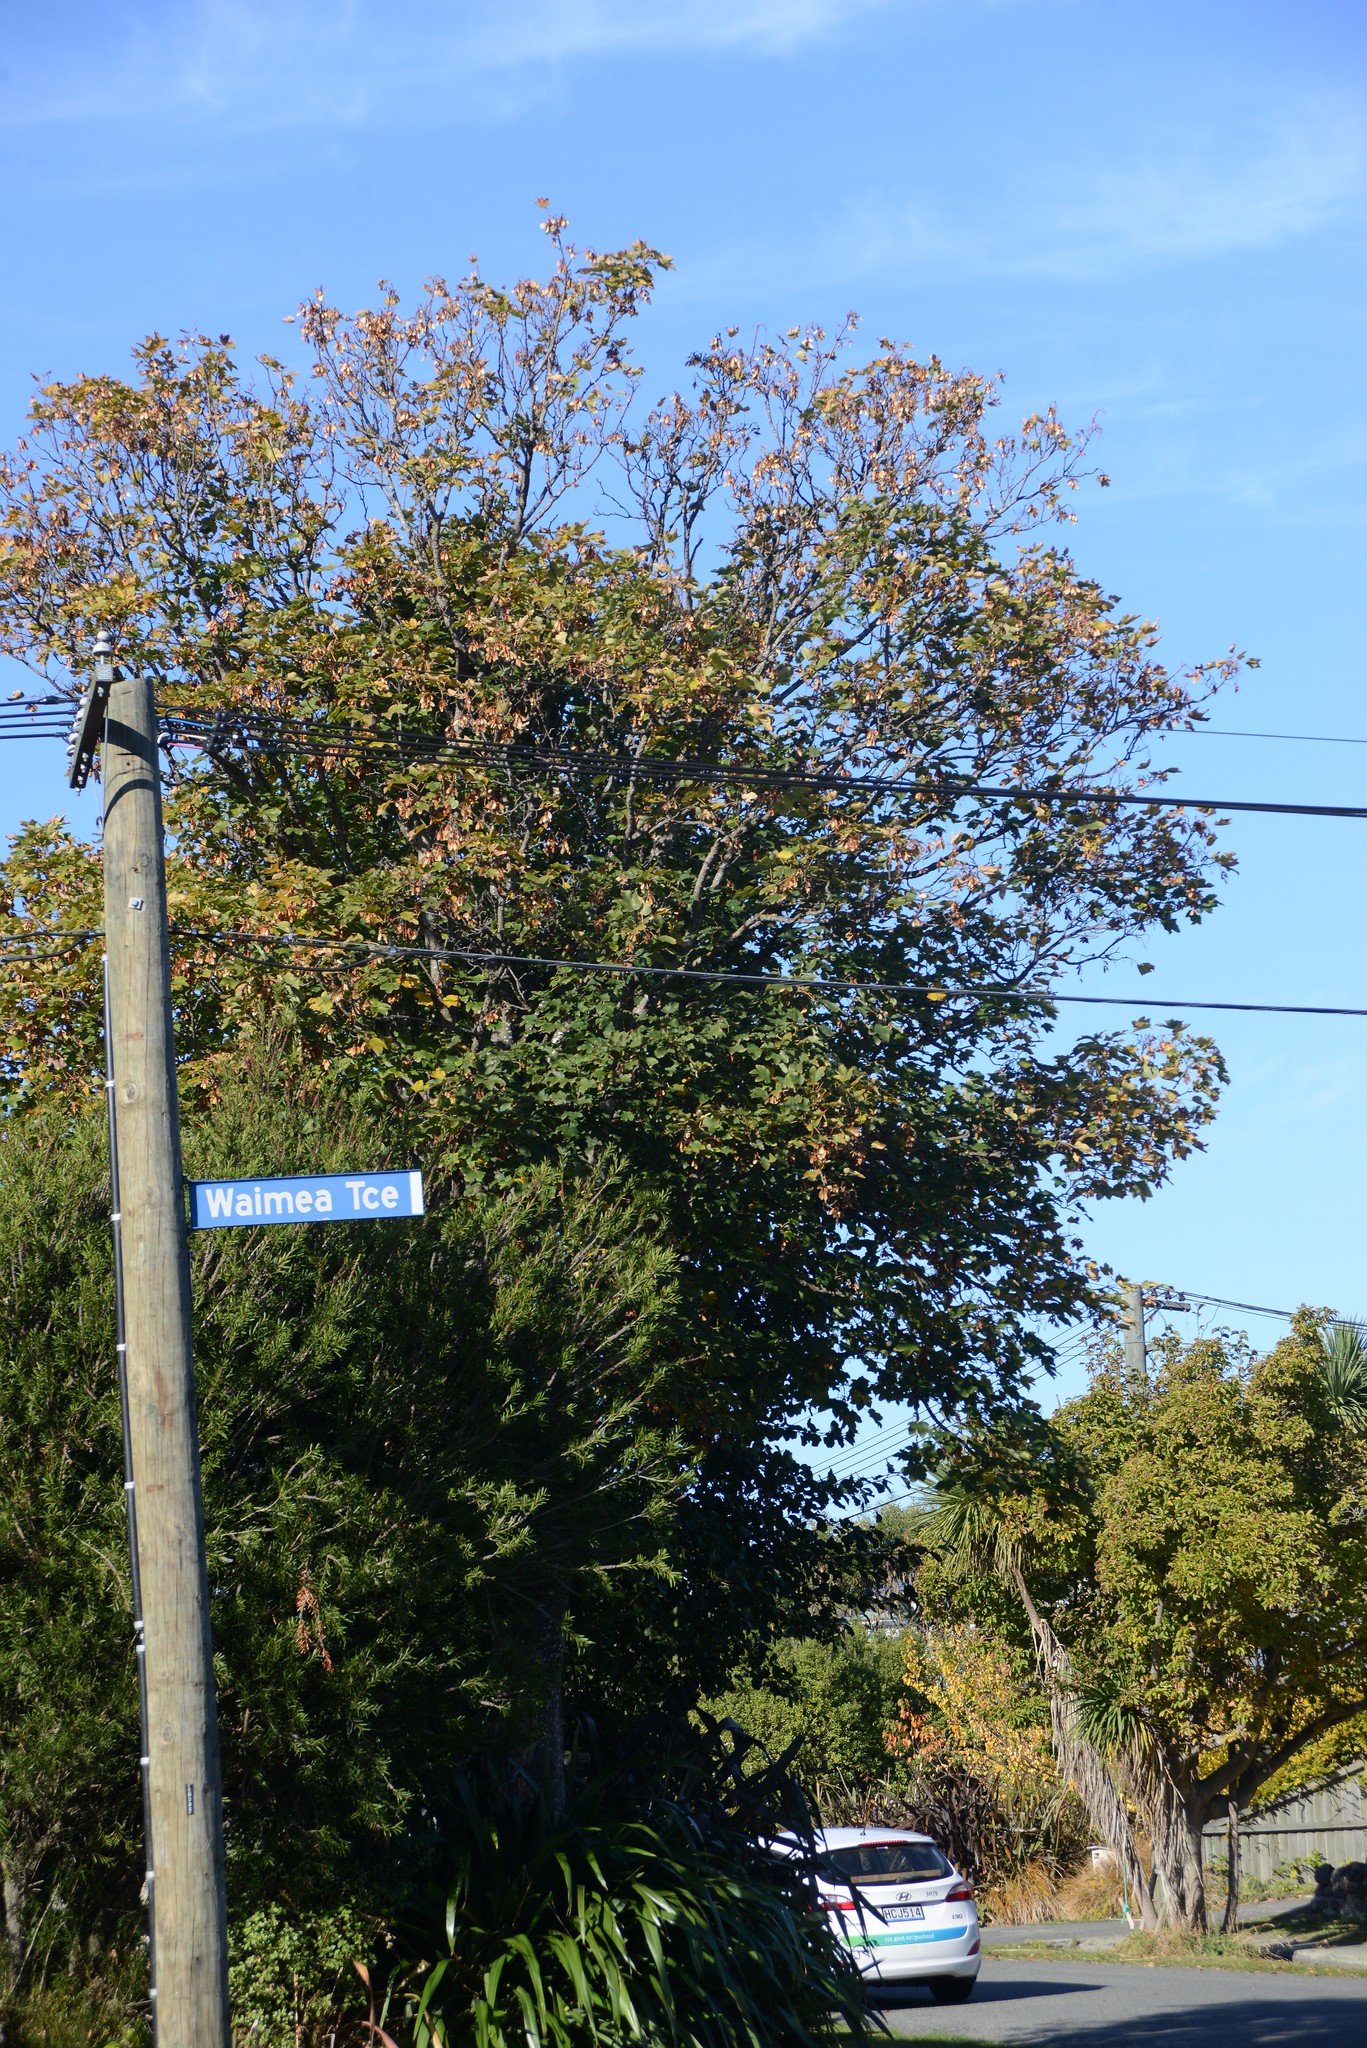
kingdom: Plantae
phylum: Tracheophyta
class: Magnoliopsida
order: Sapindales
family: Sapindaceae
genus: Acer
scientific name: Acer pseudoplatanus
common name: Sycamore
